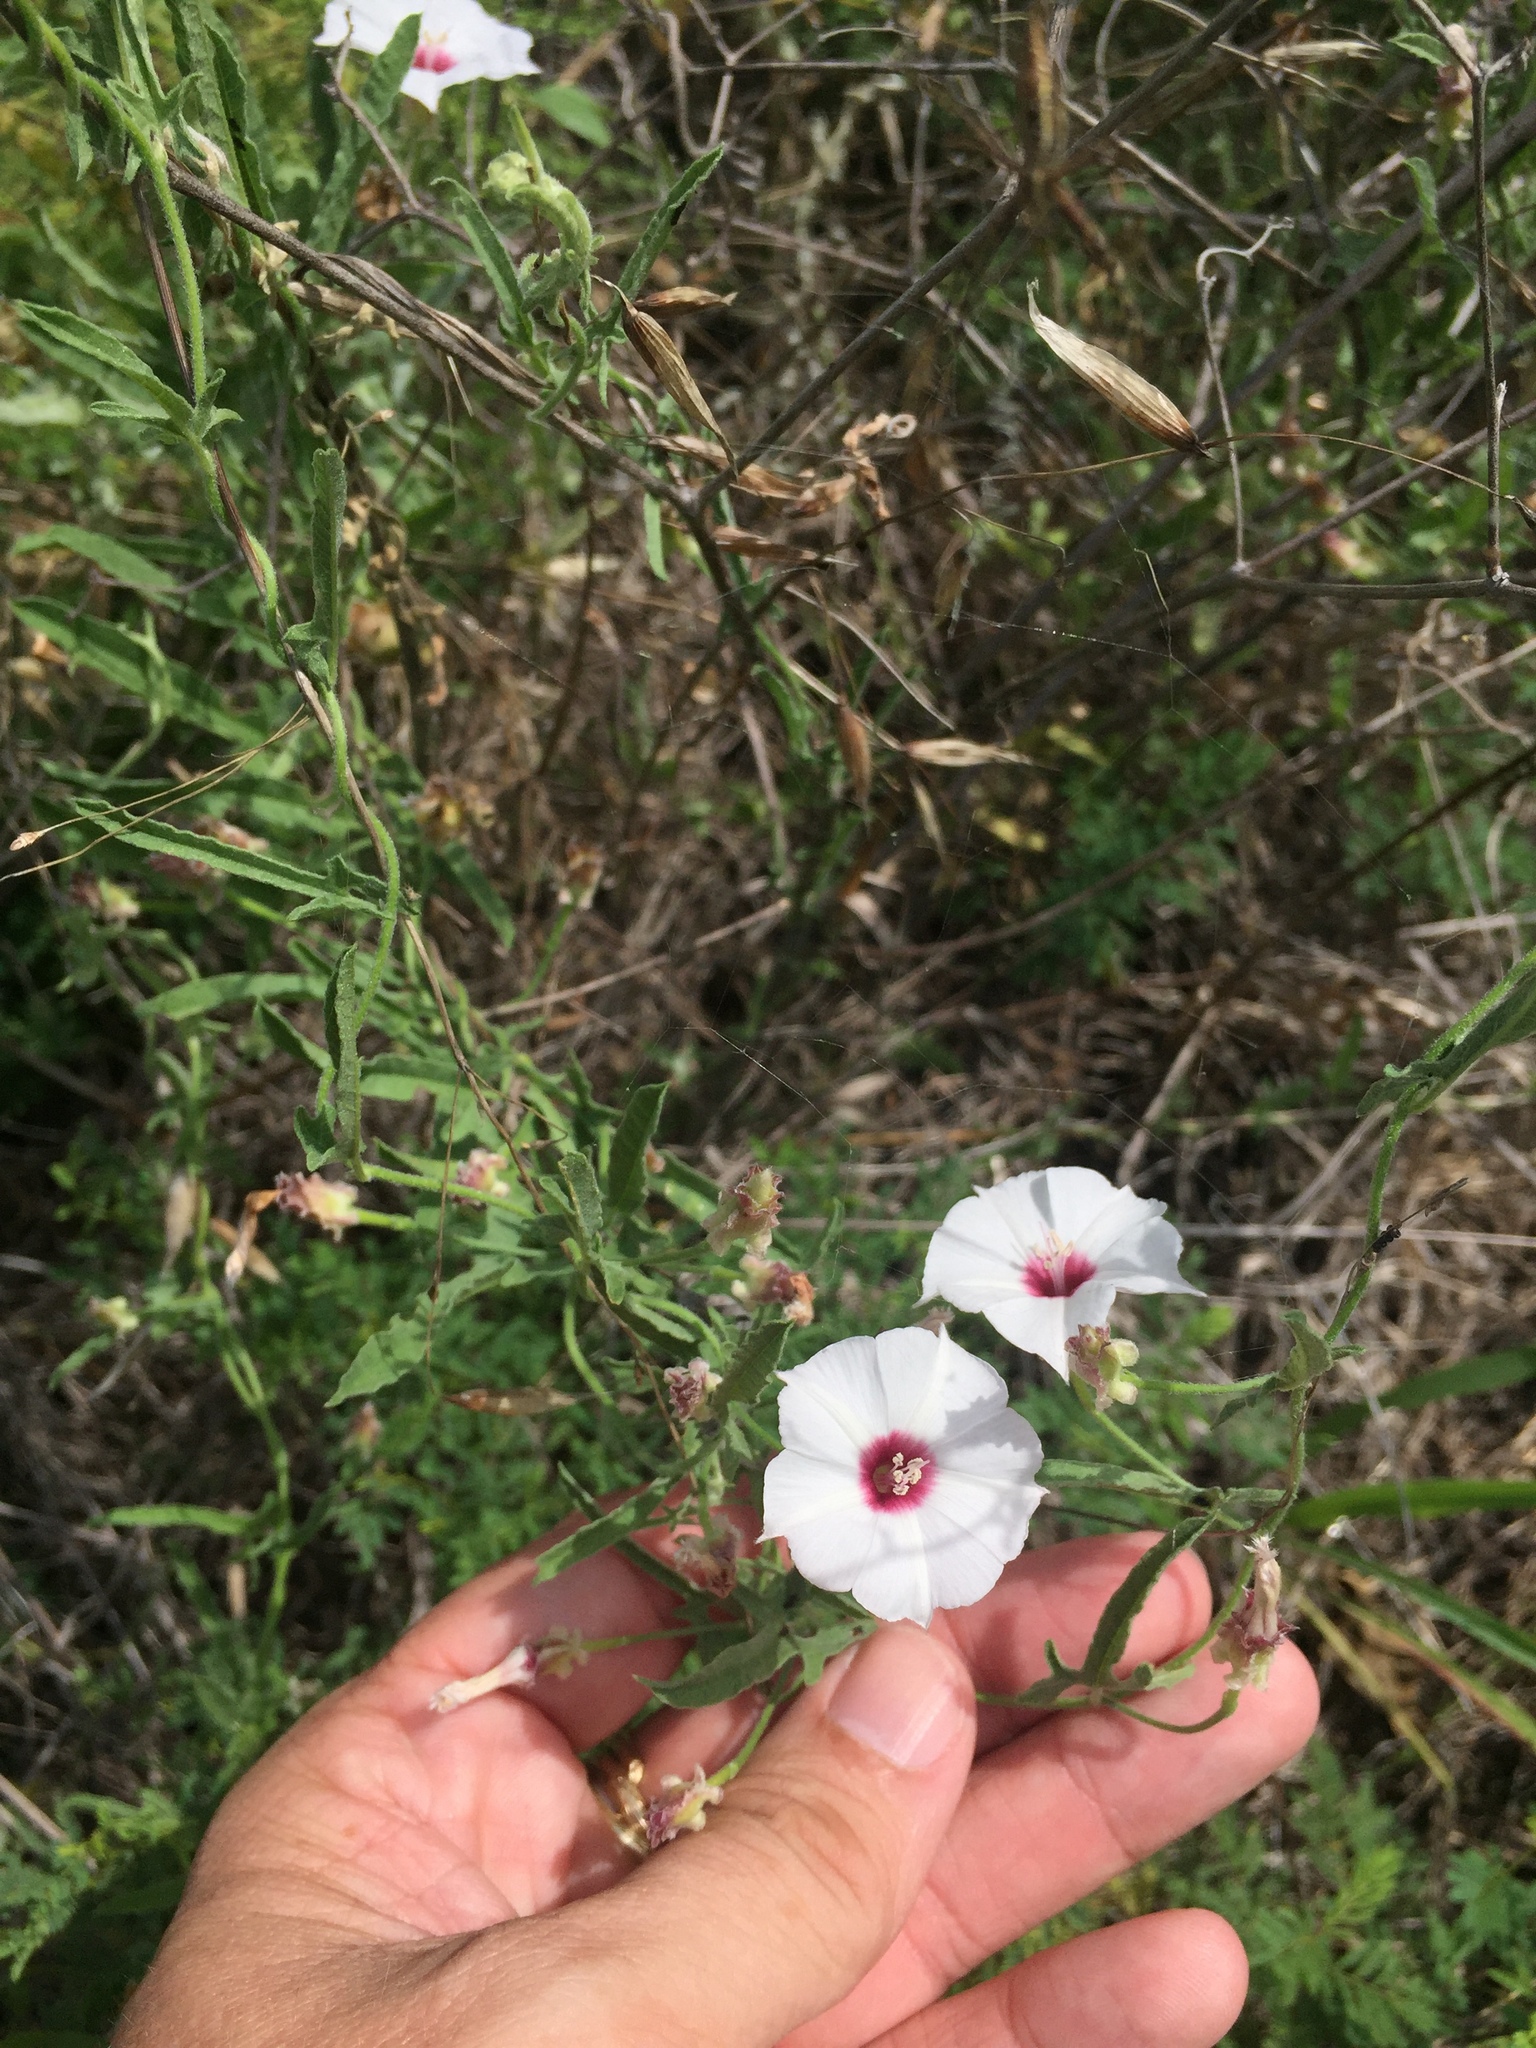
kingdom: Plantae
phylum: Tracheophyta
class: Magnoliopsida
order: Solanales
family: Convolvulaceae
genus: Convolvulus
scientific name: Convolvulus equitans
